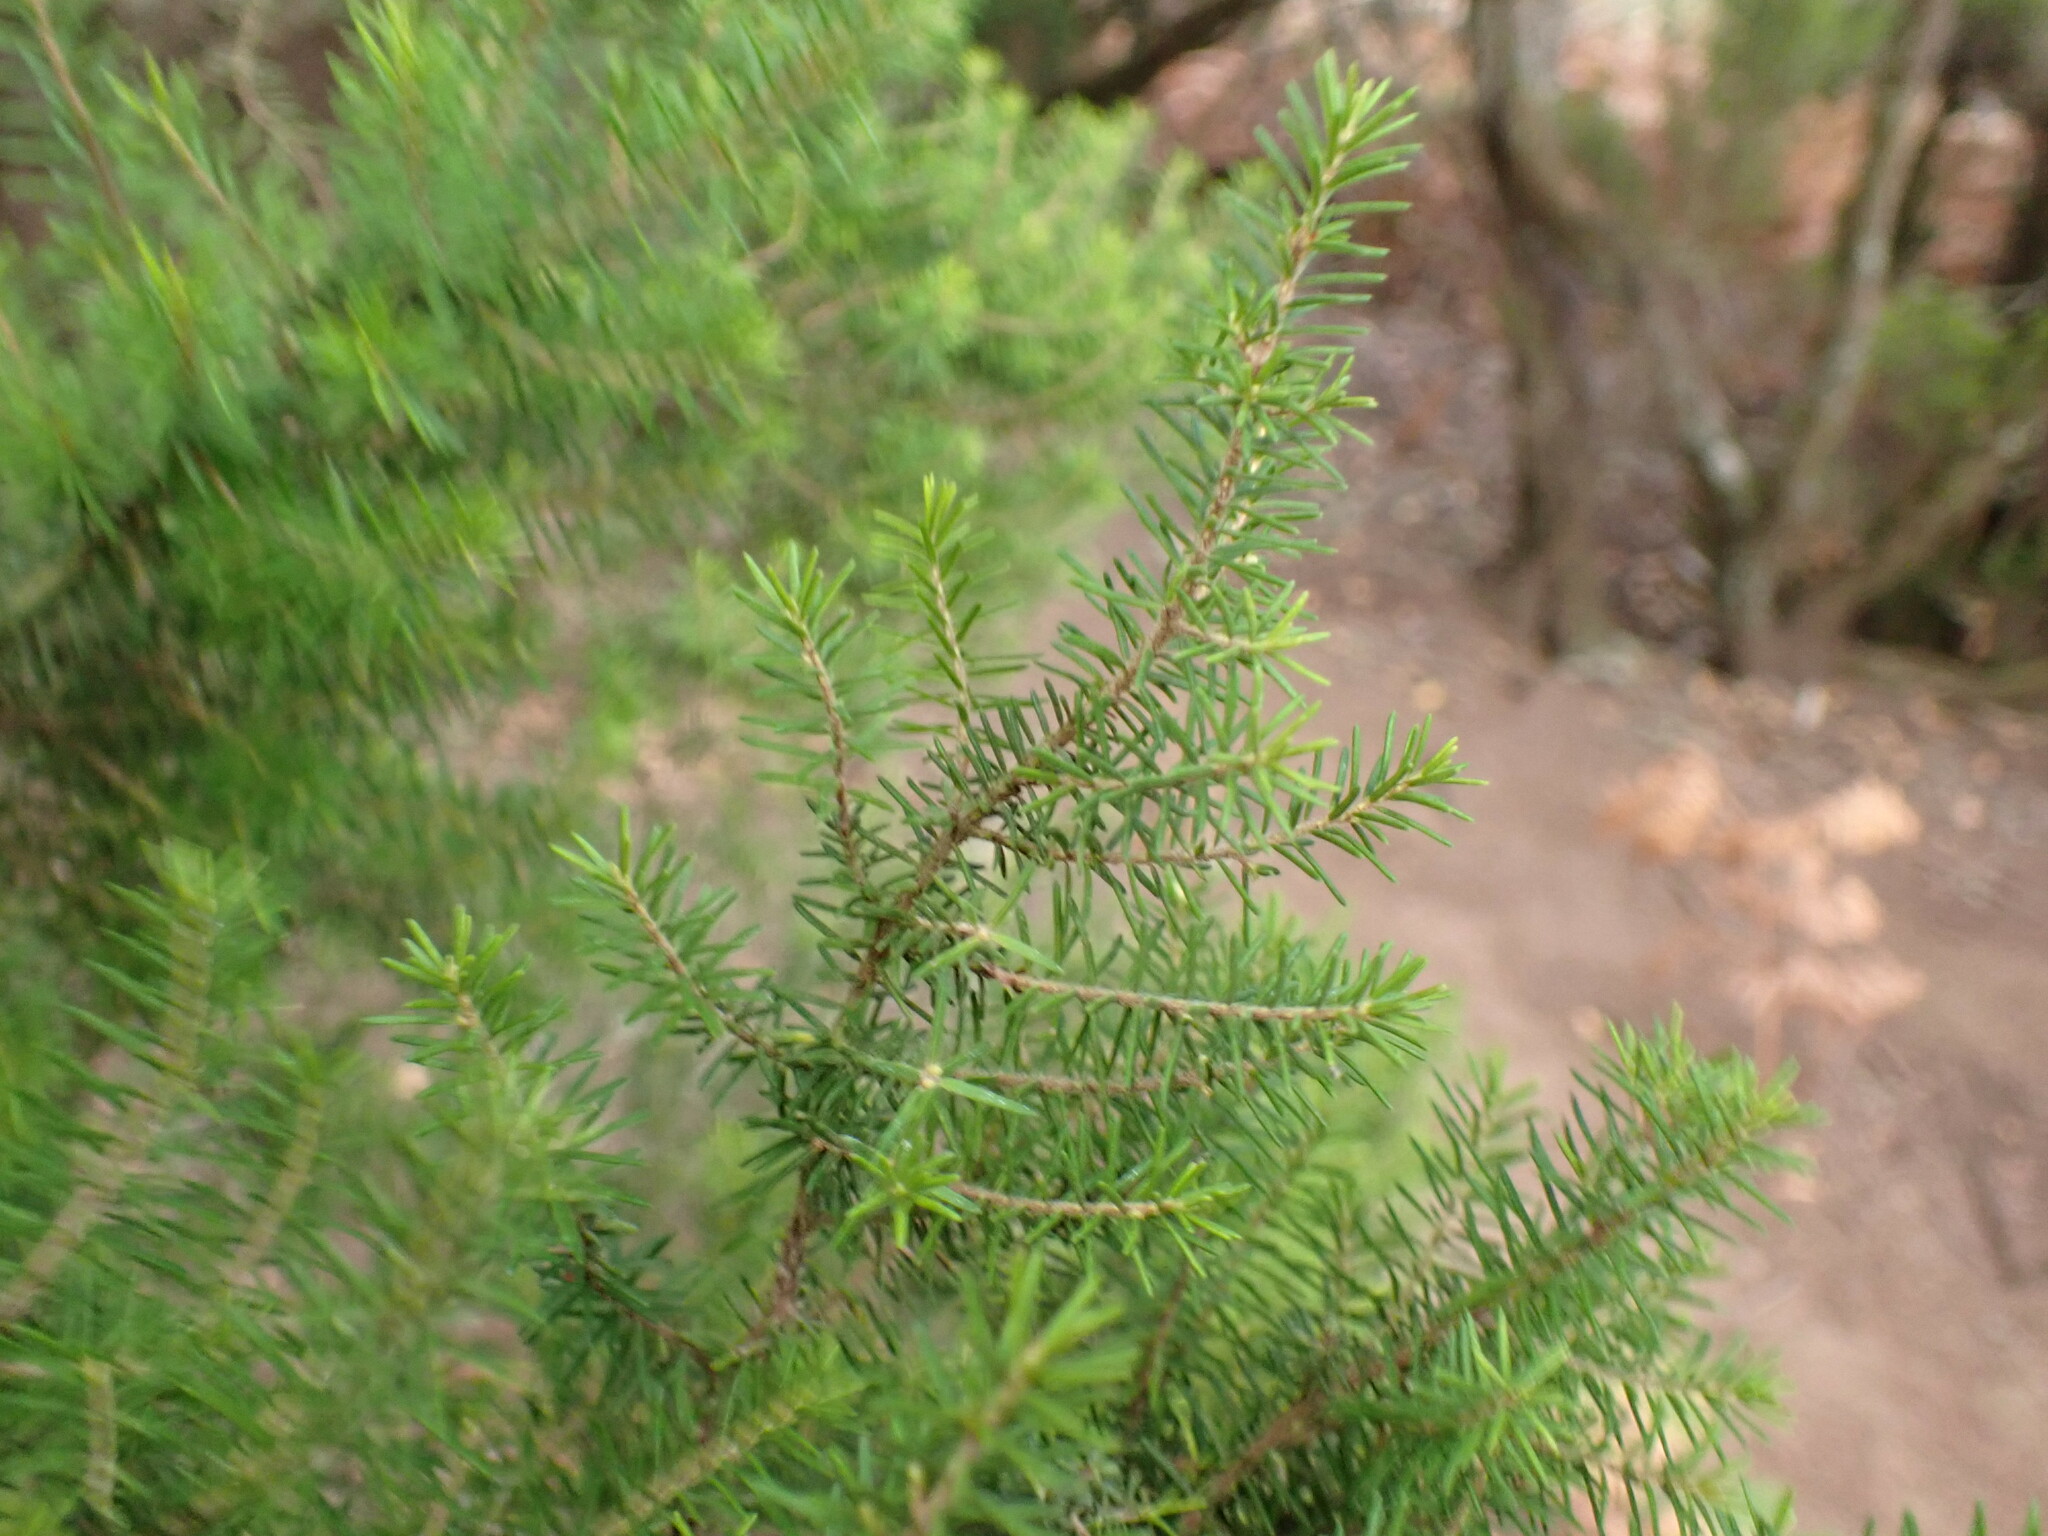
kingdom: Plantae
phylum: Tracheophyta
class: Magnoliopsida
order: Ericales
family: Ericaceae
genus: Erica
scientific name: Erica canariensis
